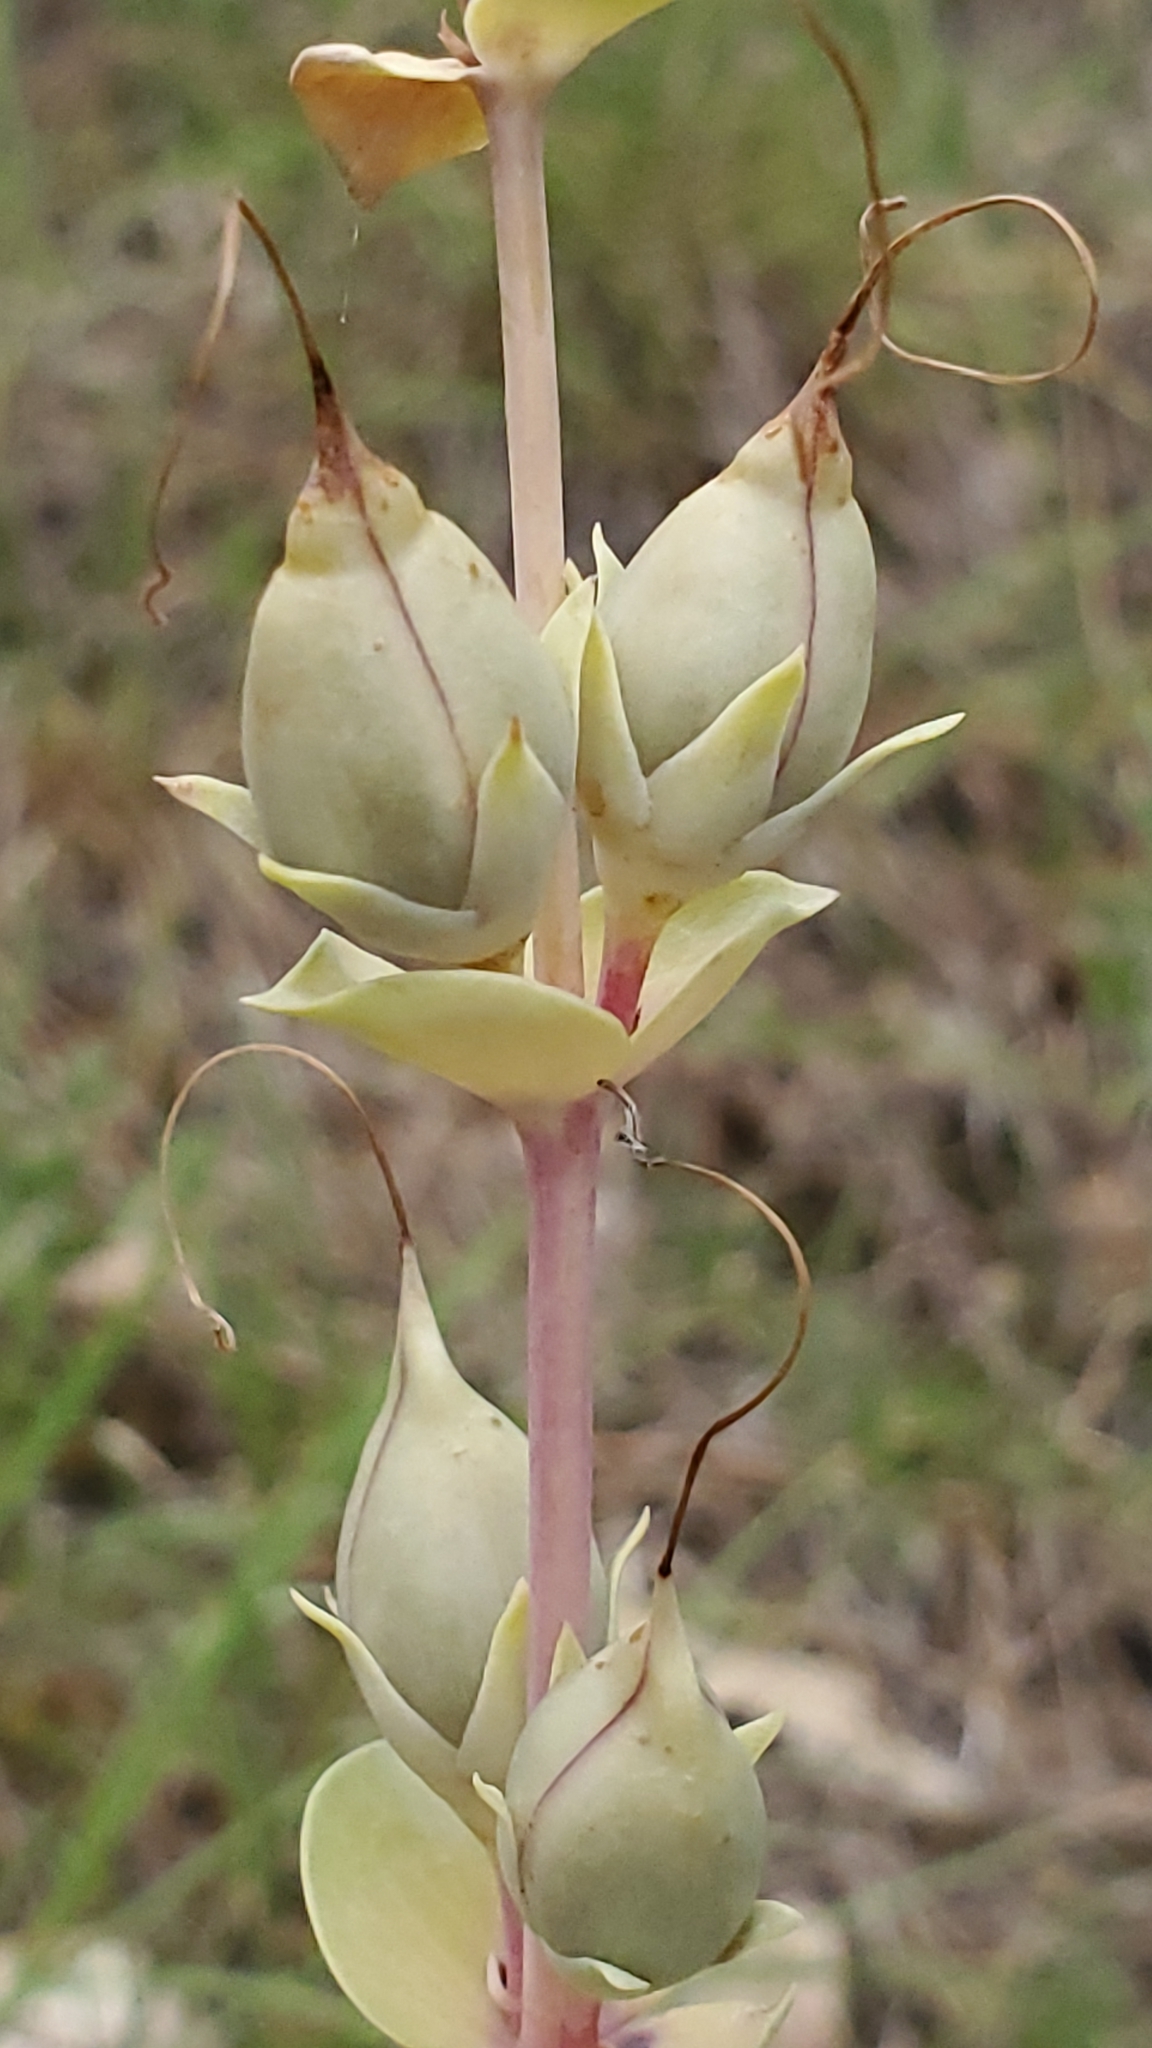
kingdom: Plantae
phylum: Tracheophyta
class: Magnoliopsida
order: Lamiales
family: Plantaginaceae
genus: Penstemon
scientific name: Penstemon
